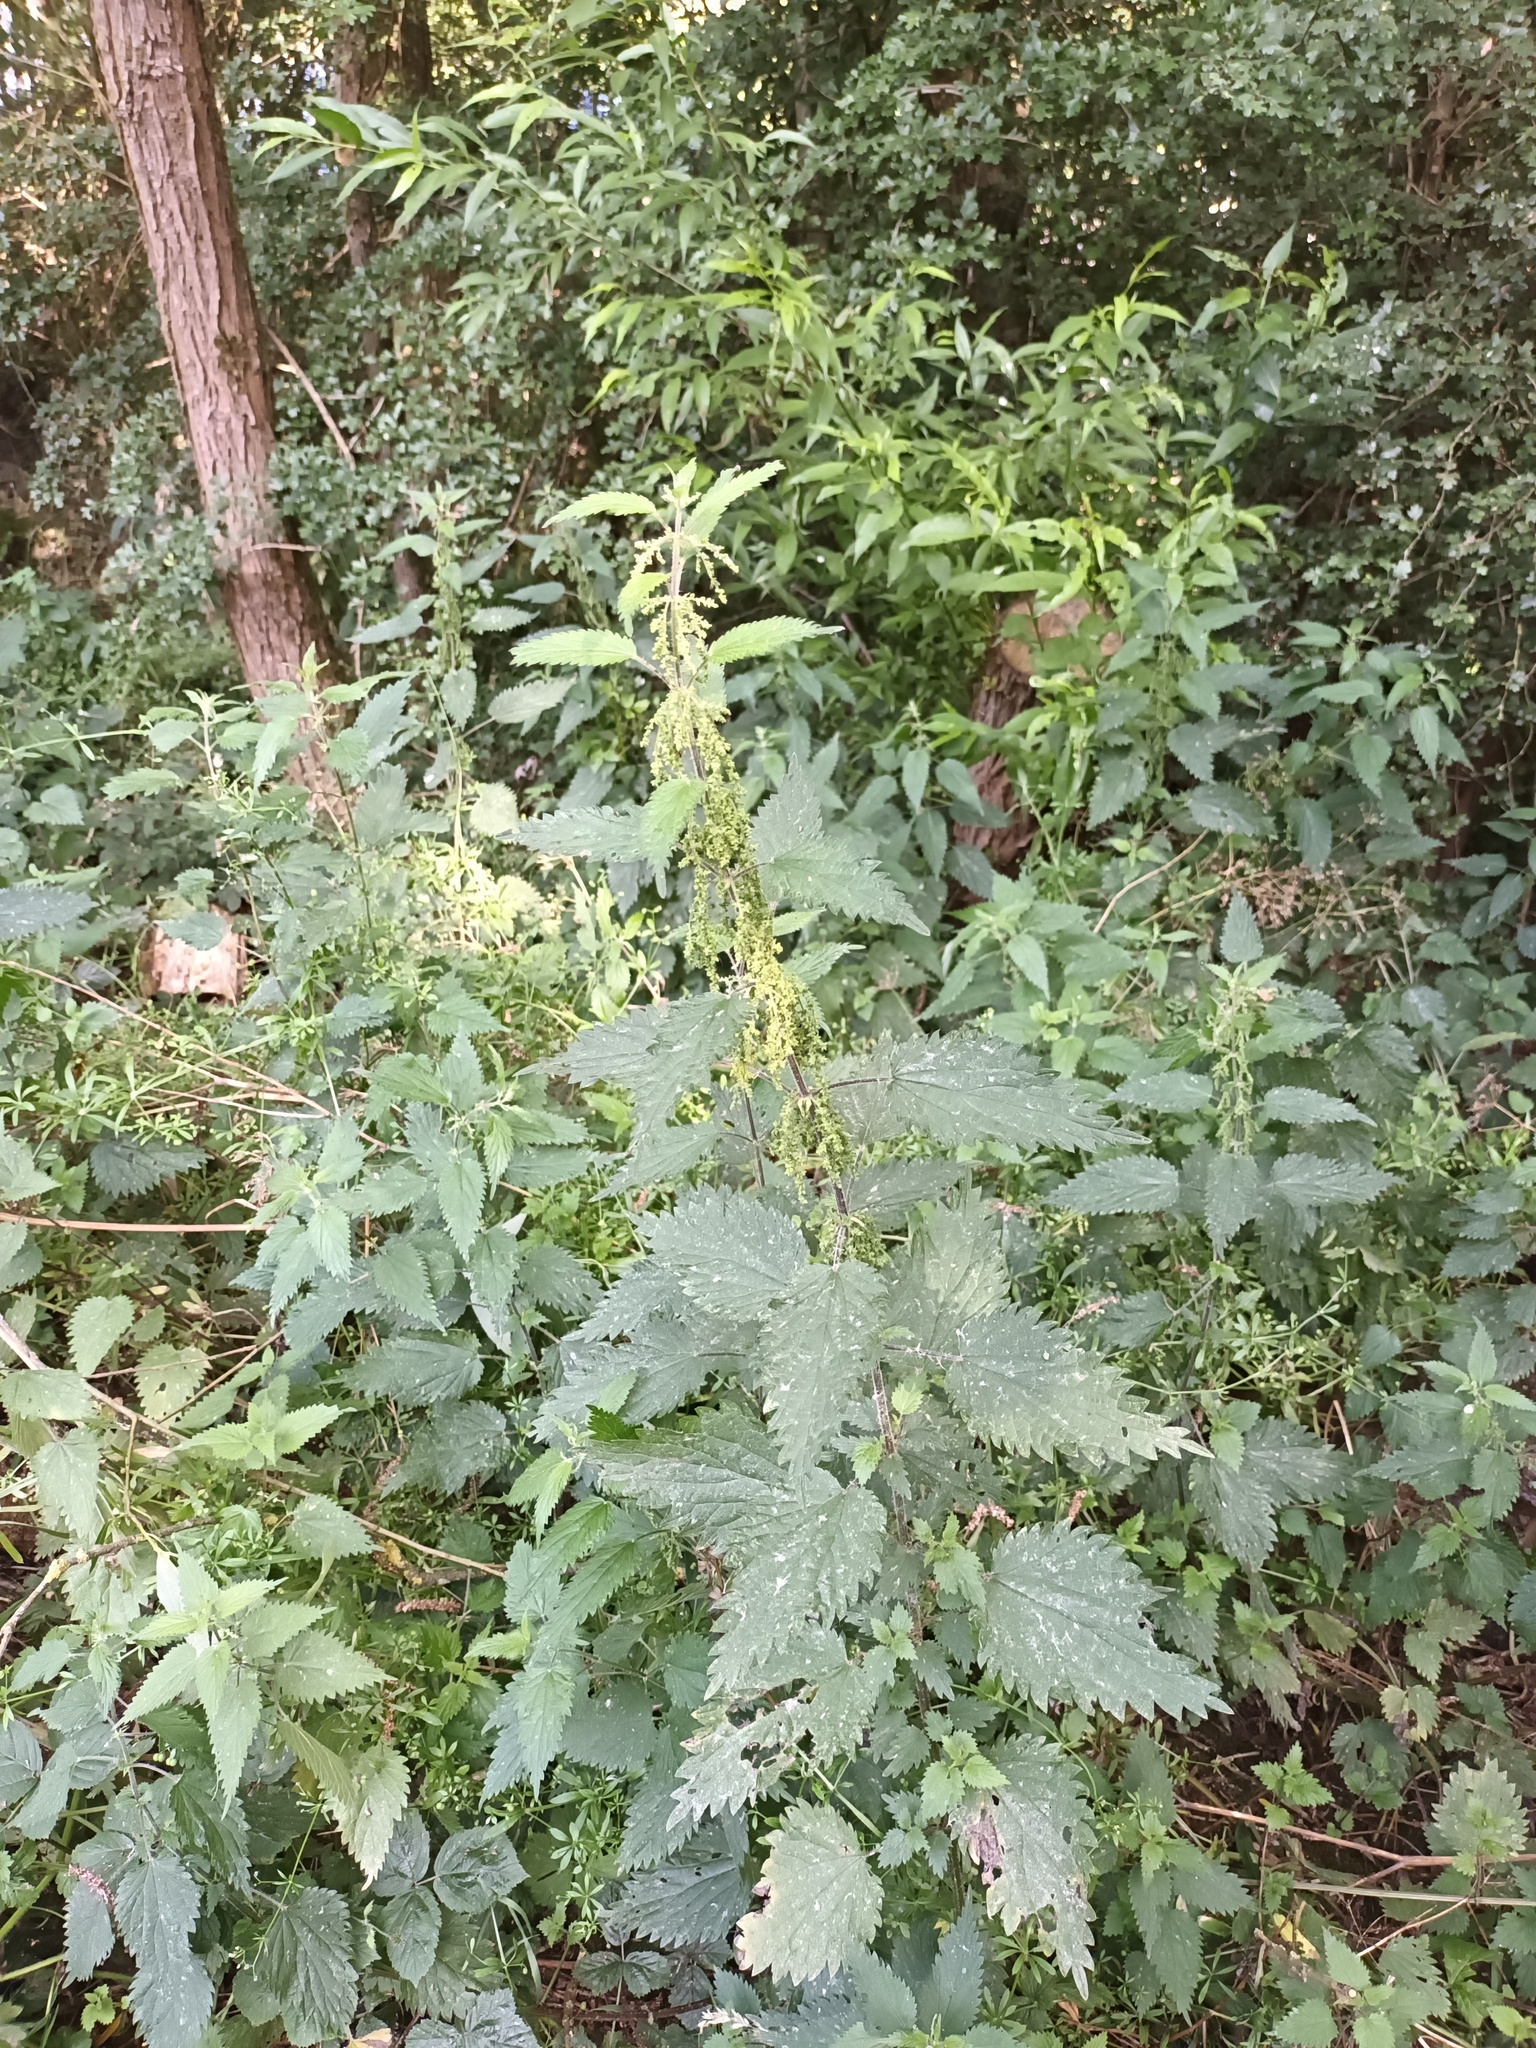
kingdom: Plantae
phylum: Tracheophyta
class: Magnoliopsida
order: Rosales
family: Urticaceae
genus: Urtica
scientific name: Urtica dioica
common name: Common nettle
